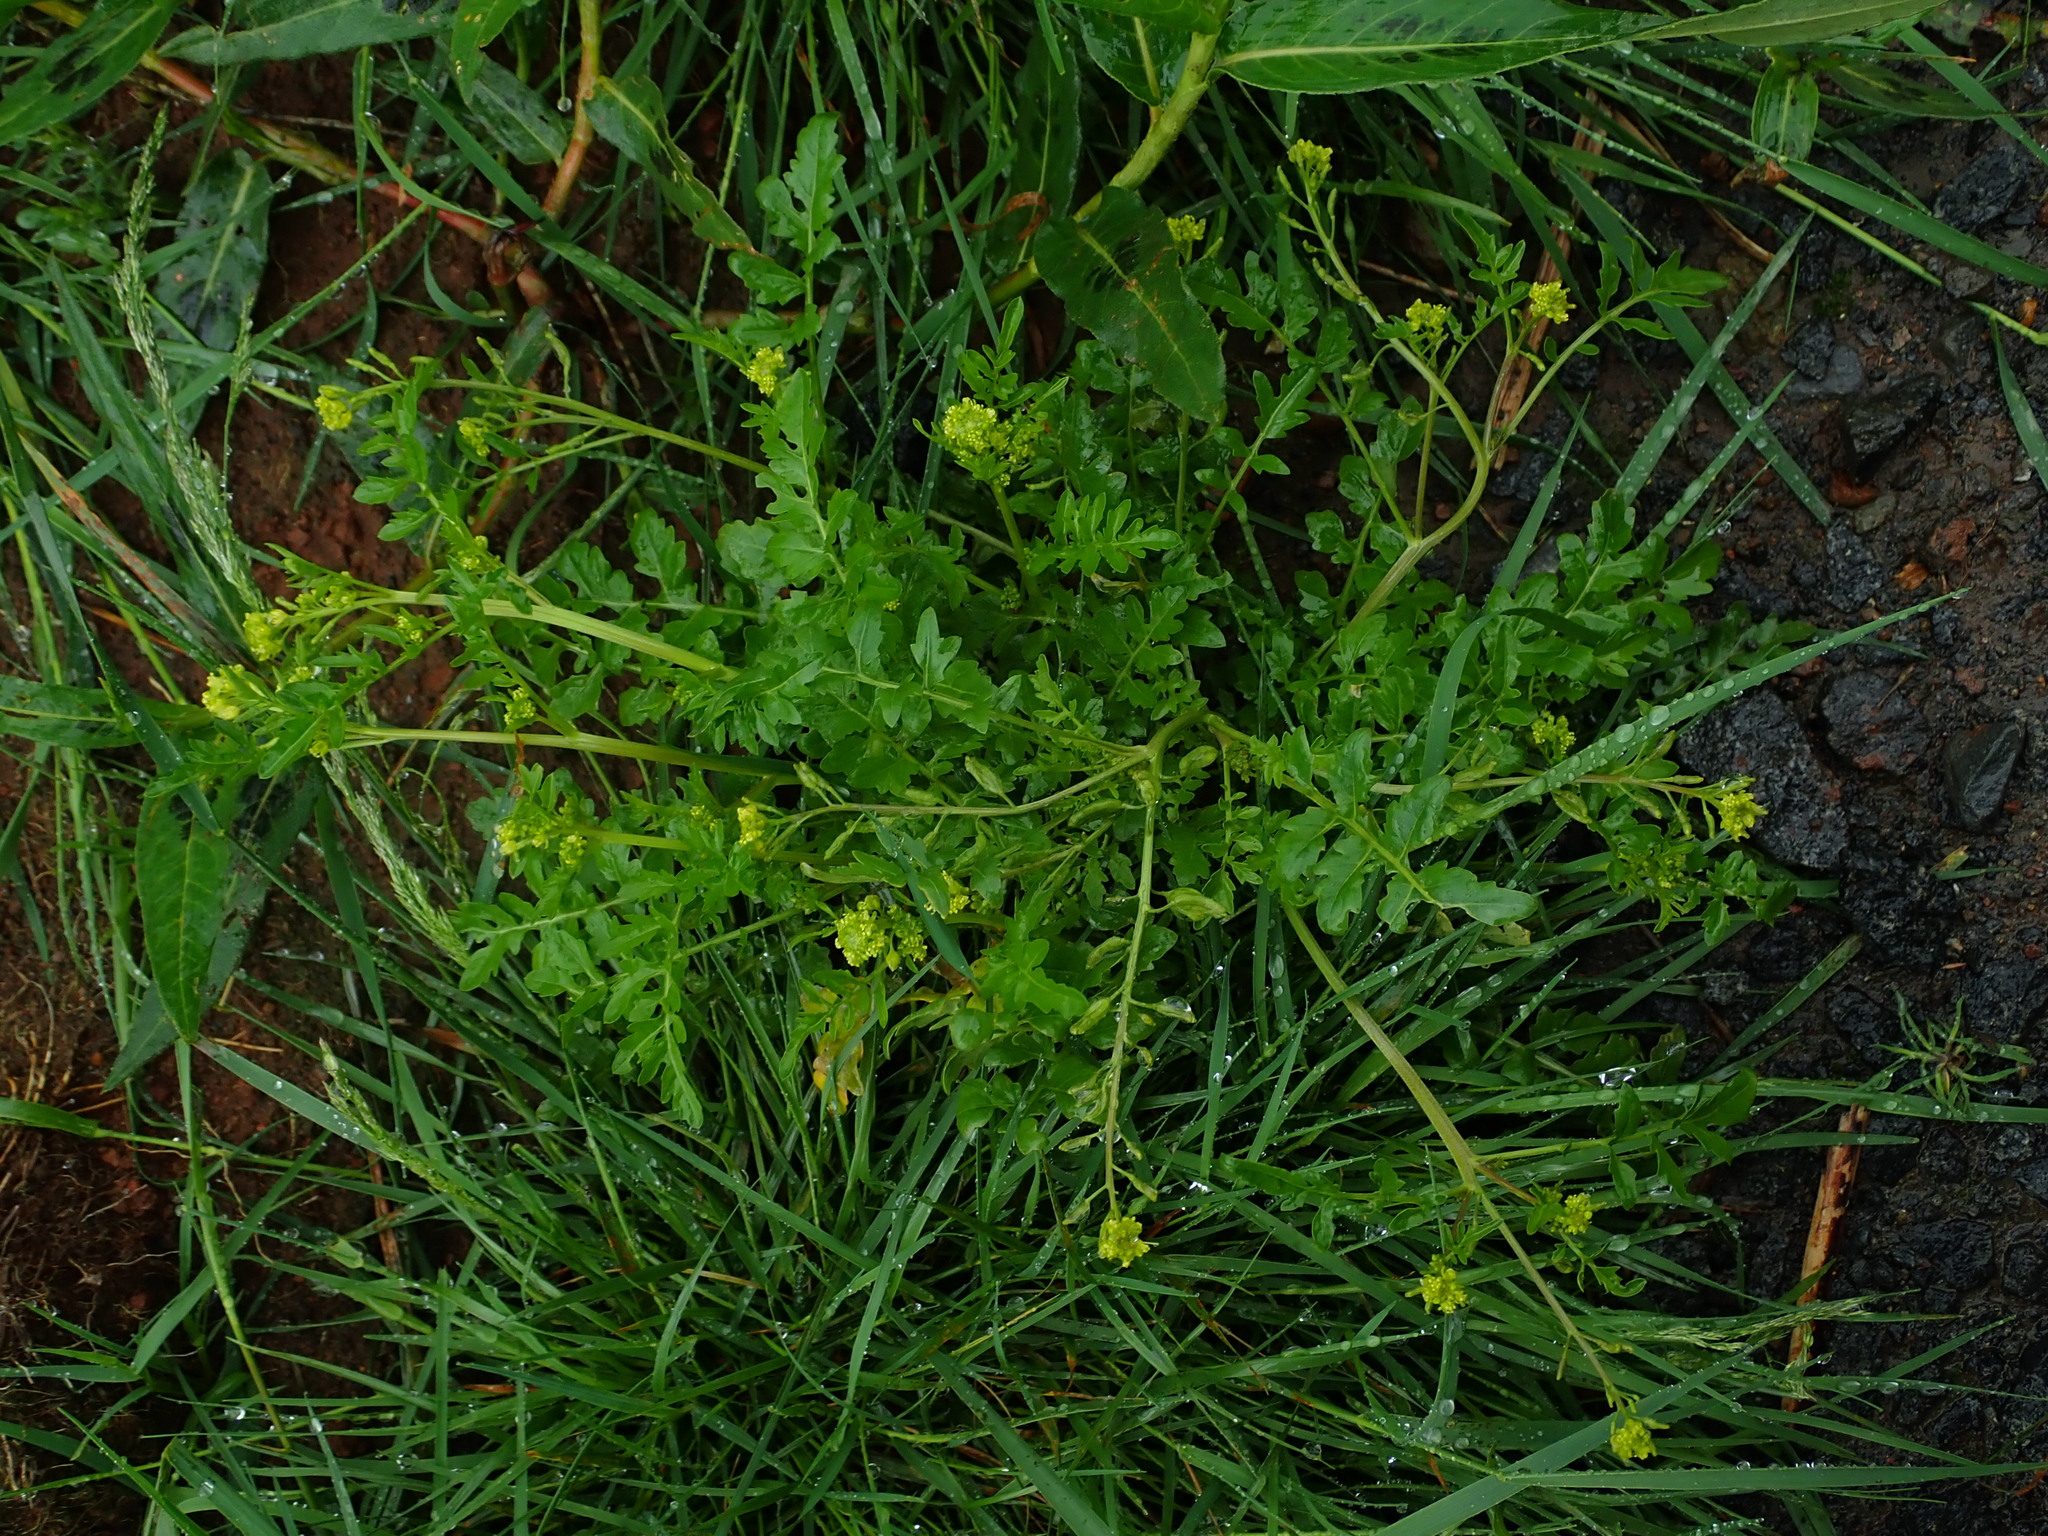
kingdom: Plantae
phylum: Tracheophyta
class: Magnoliopsida
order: Brassicales
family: Brassicaceae
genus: Rorippa
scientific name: Rorippa palustris
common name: Marsh yellow-cress
